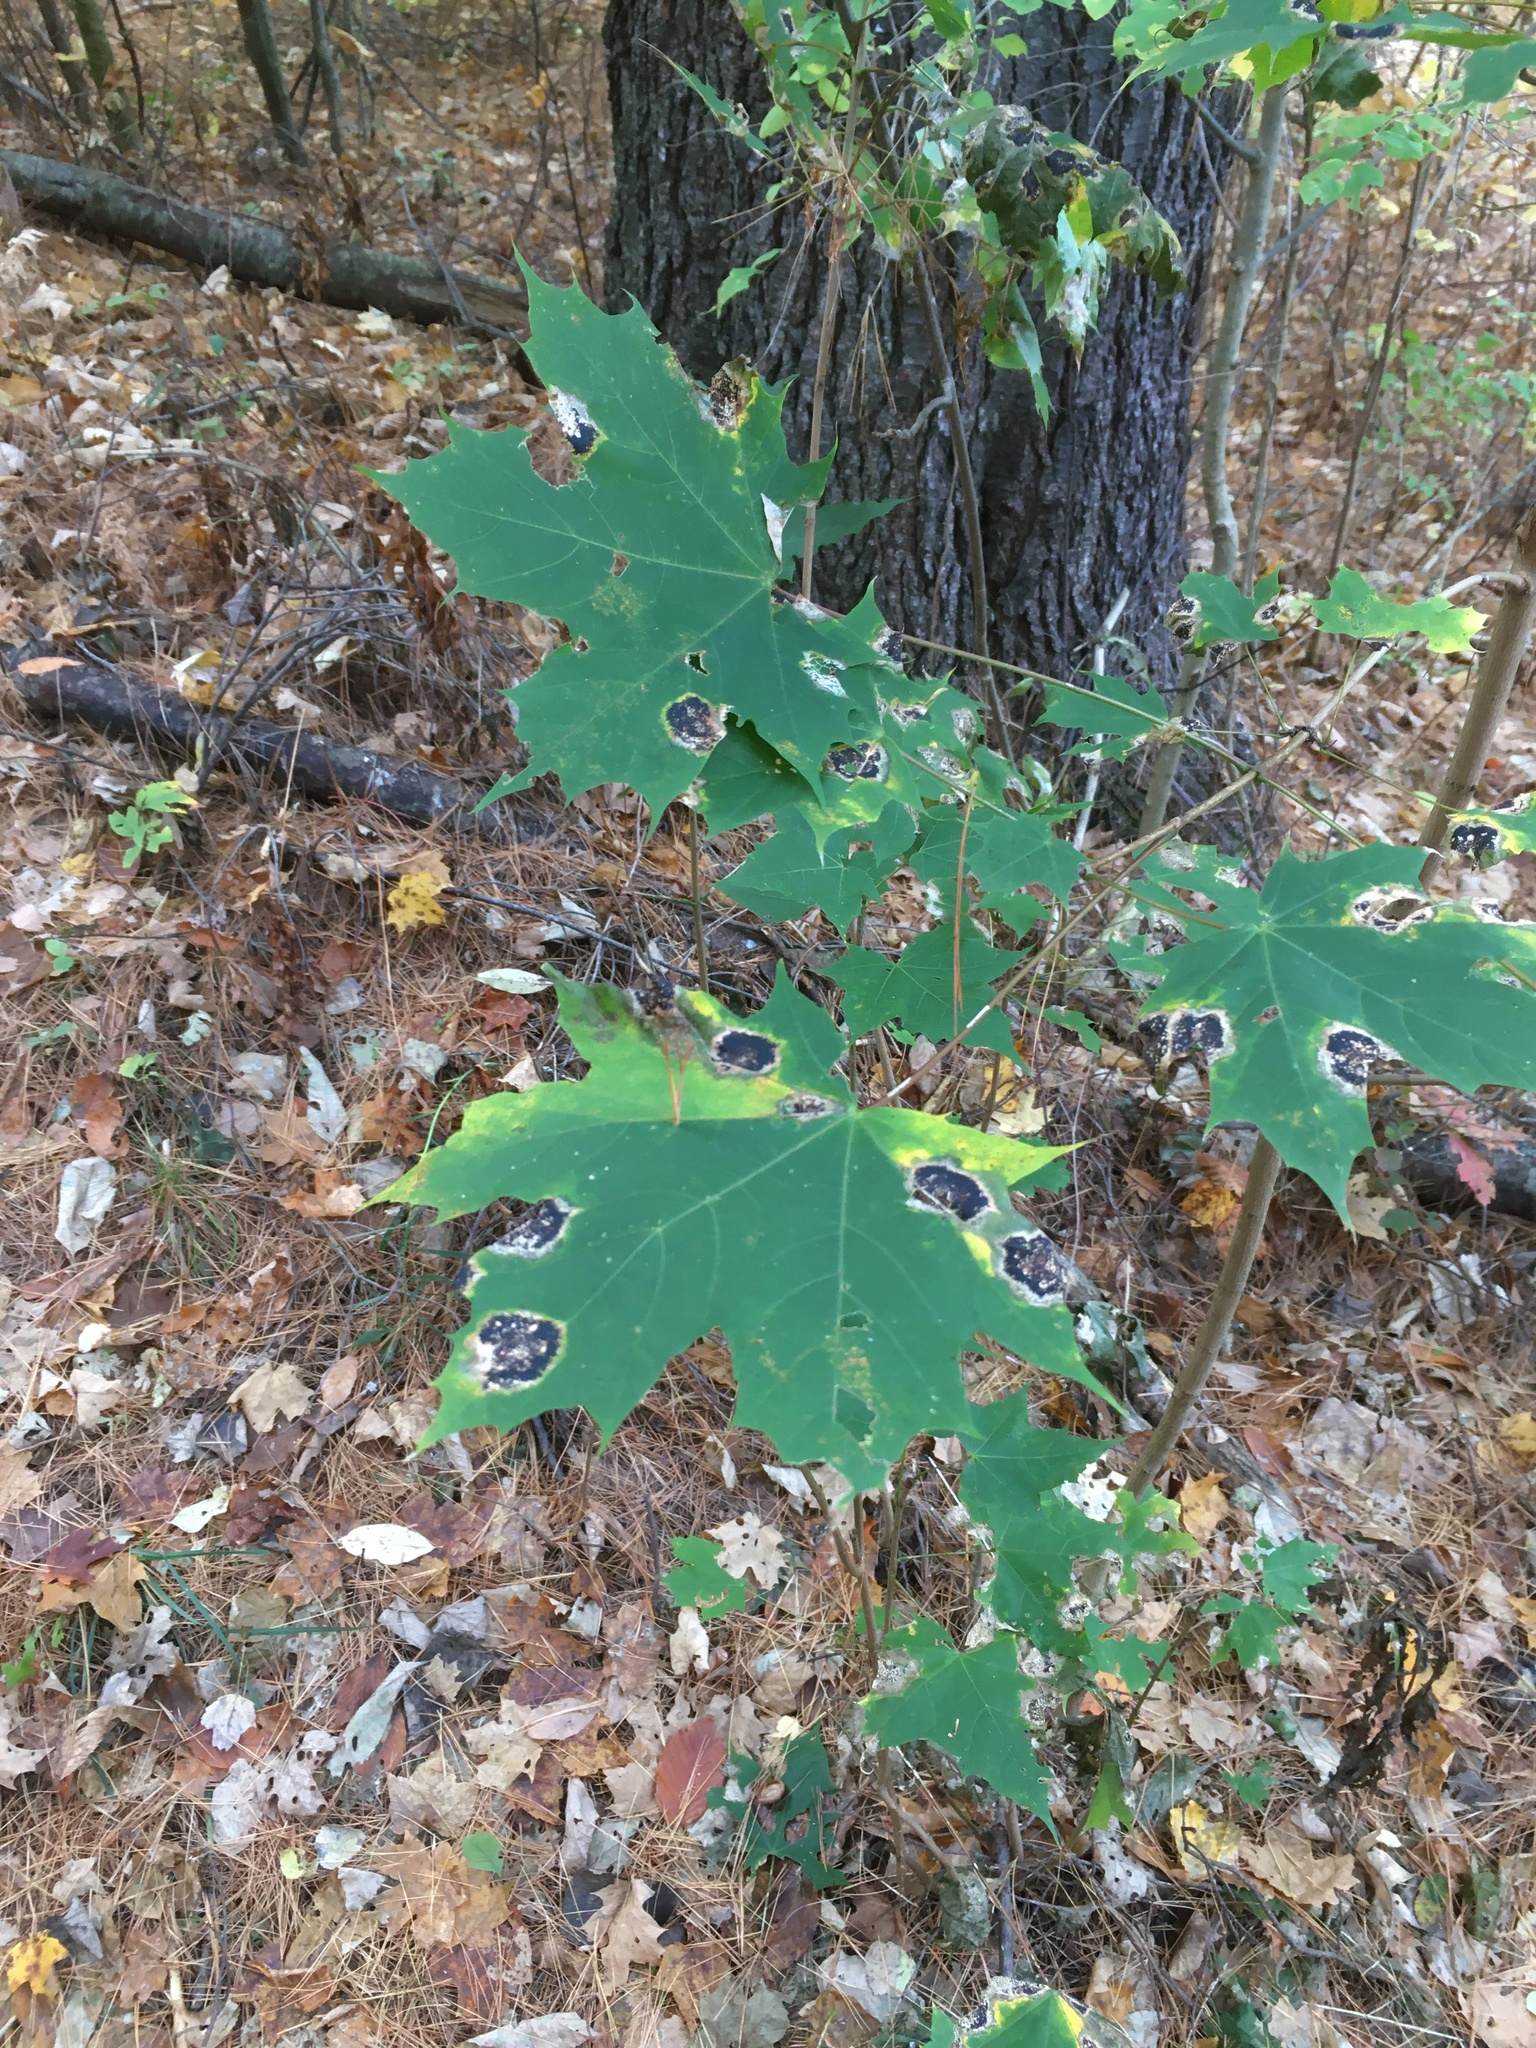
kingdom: Plantae
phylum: Tracheophyta
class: Magnoliopsida
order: Sapindales
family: Sapindaceae
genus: Acer
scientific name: Acer platanoides
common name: Norway maple
